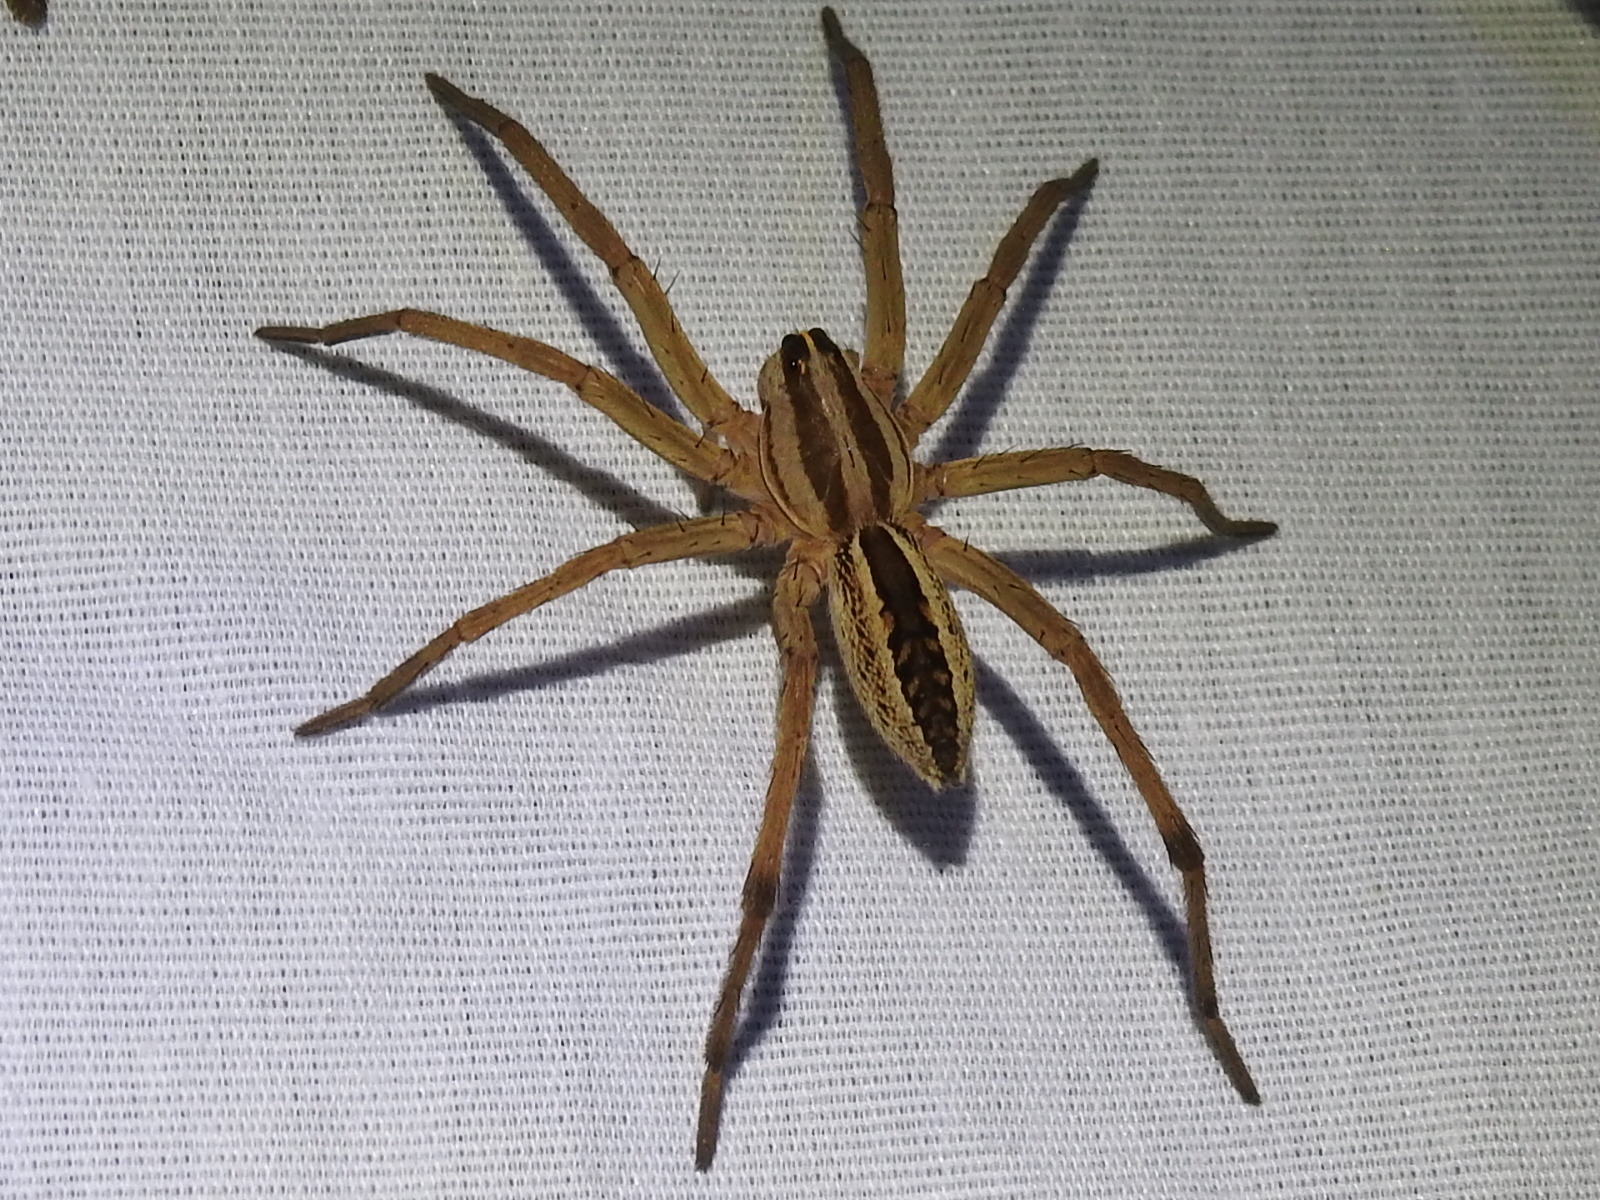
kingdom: Animalia
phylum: Arthropoda
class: Arachnida
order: Araneae
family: Lycosidae
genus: Rabidosa
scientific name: Rabidosa rabida
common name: Rabid wolf spider
